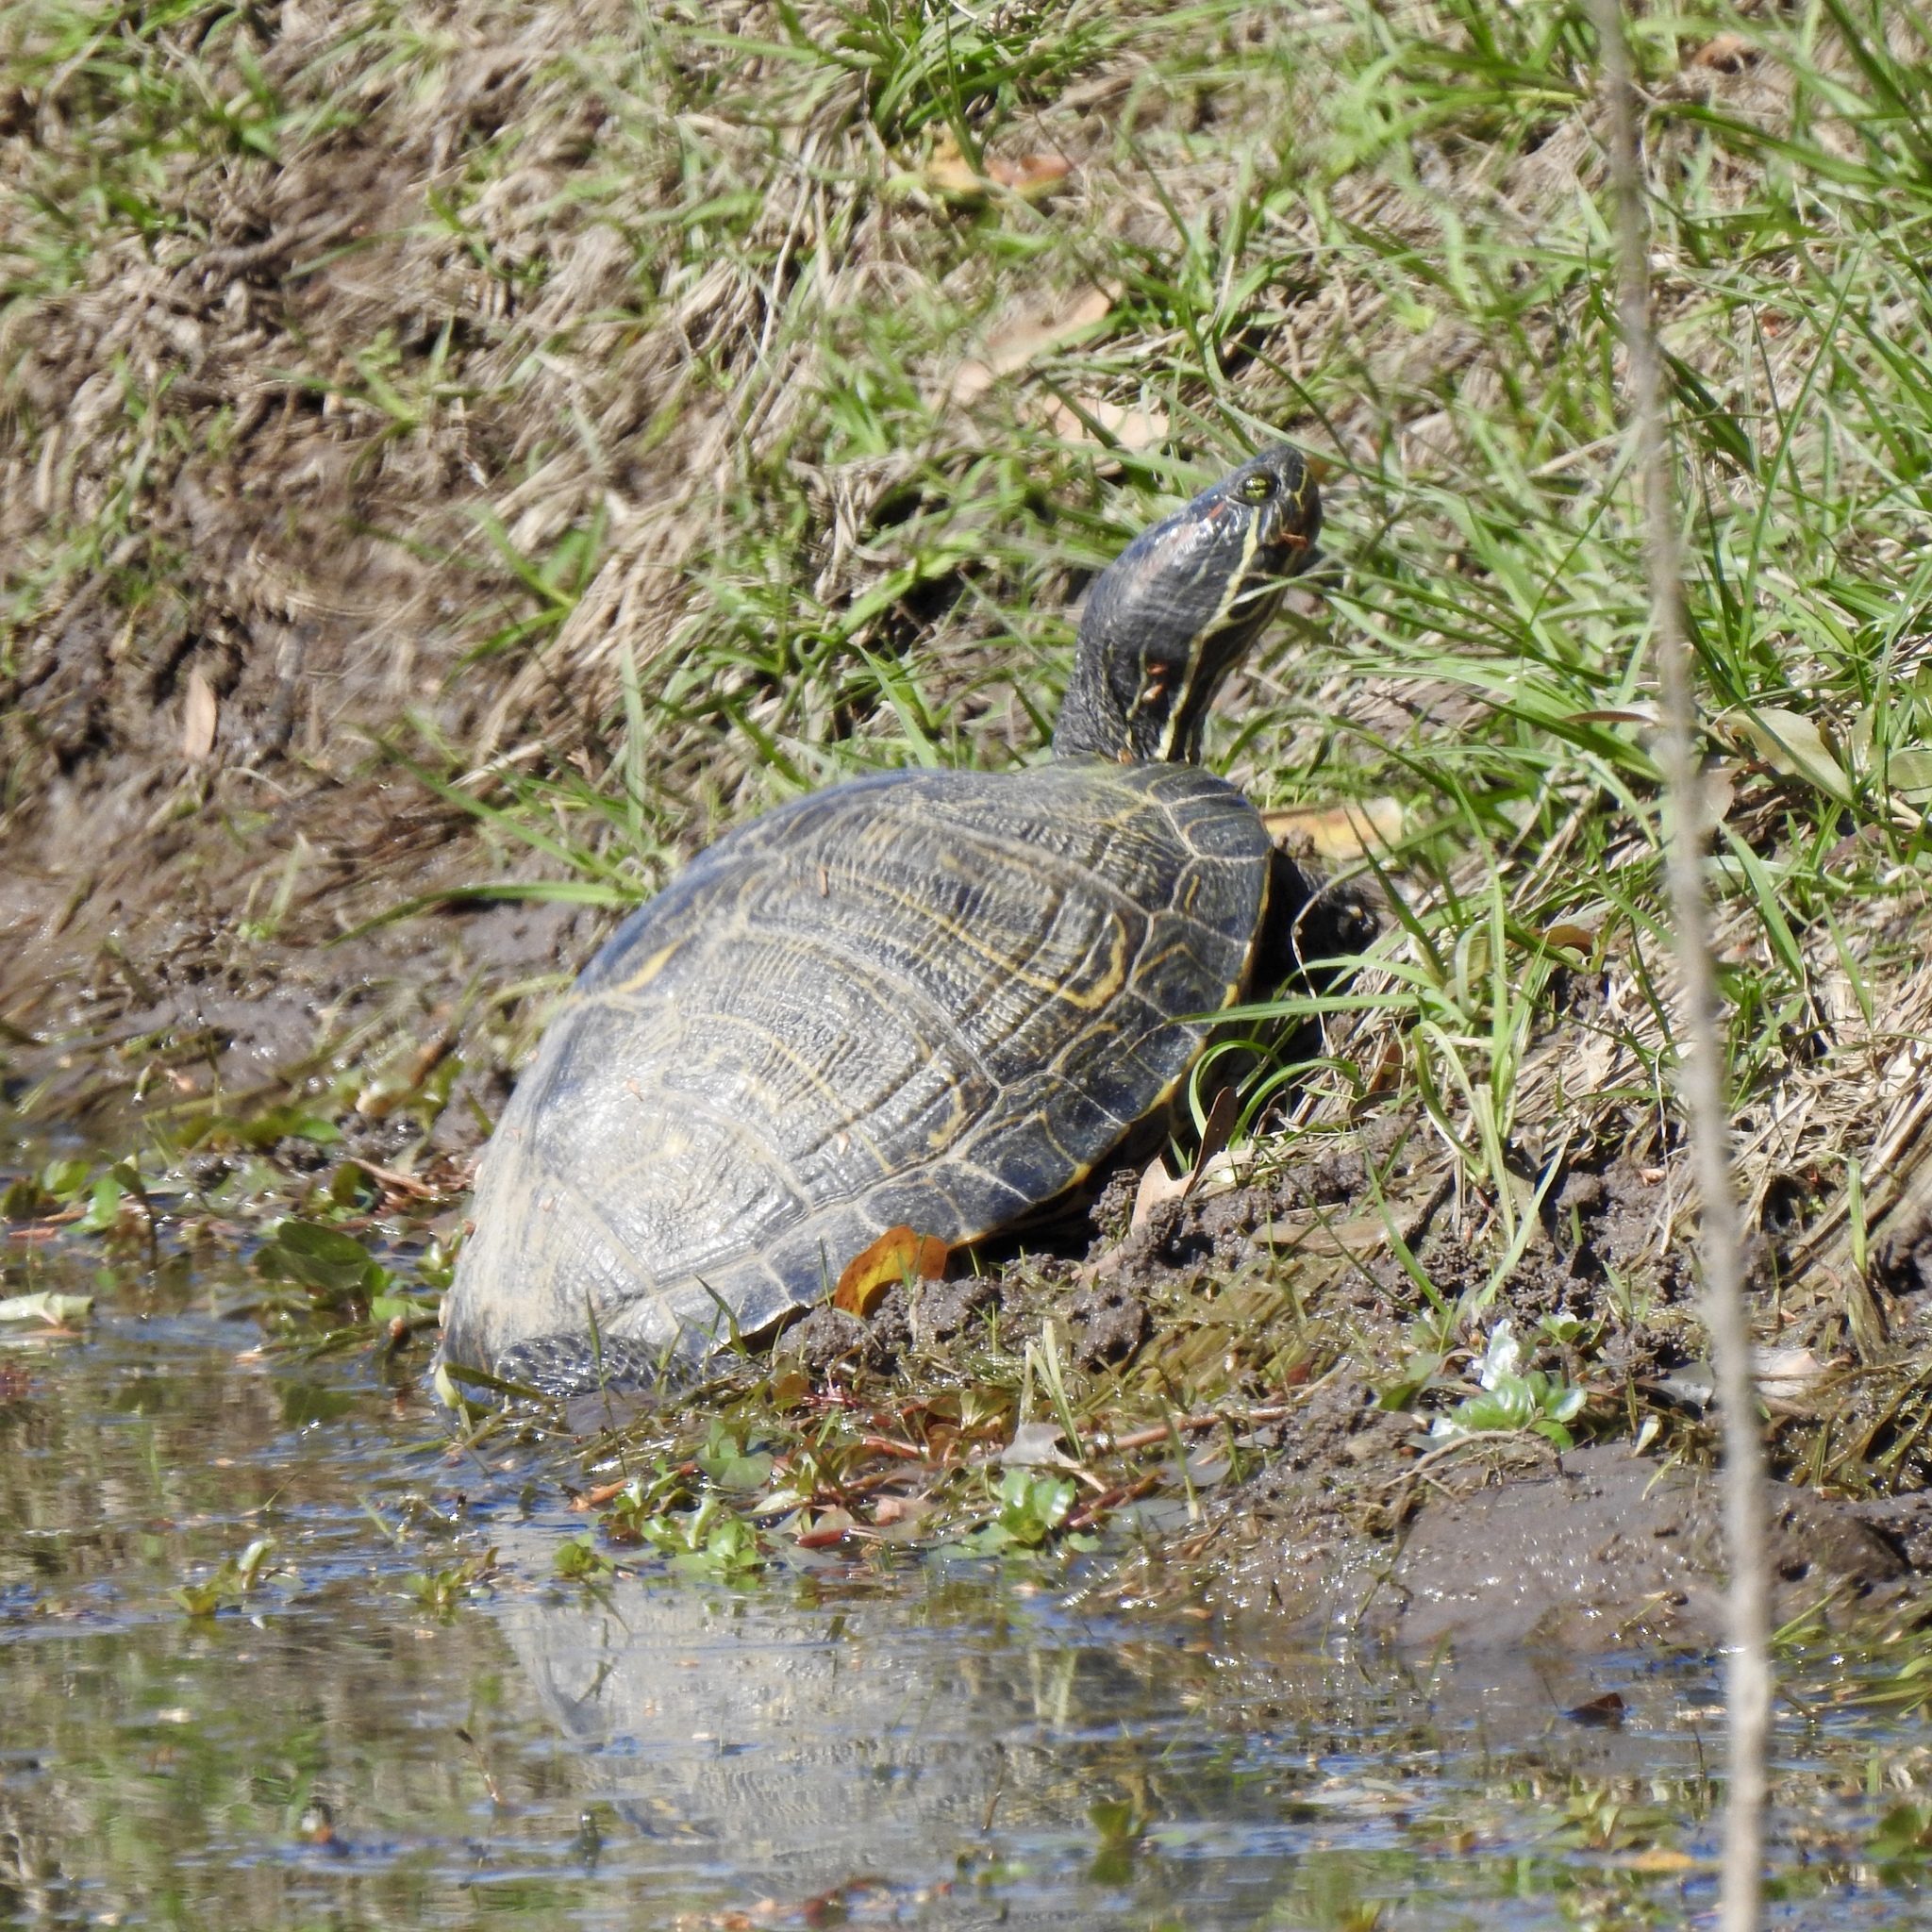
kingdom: Animalia
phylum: Chordata
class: Testudines
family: Emydidae
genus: Trachemys
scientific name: Trachemys scripta
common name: Slider
